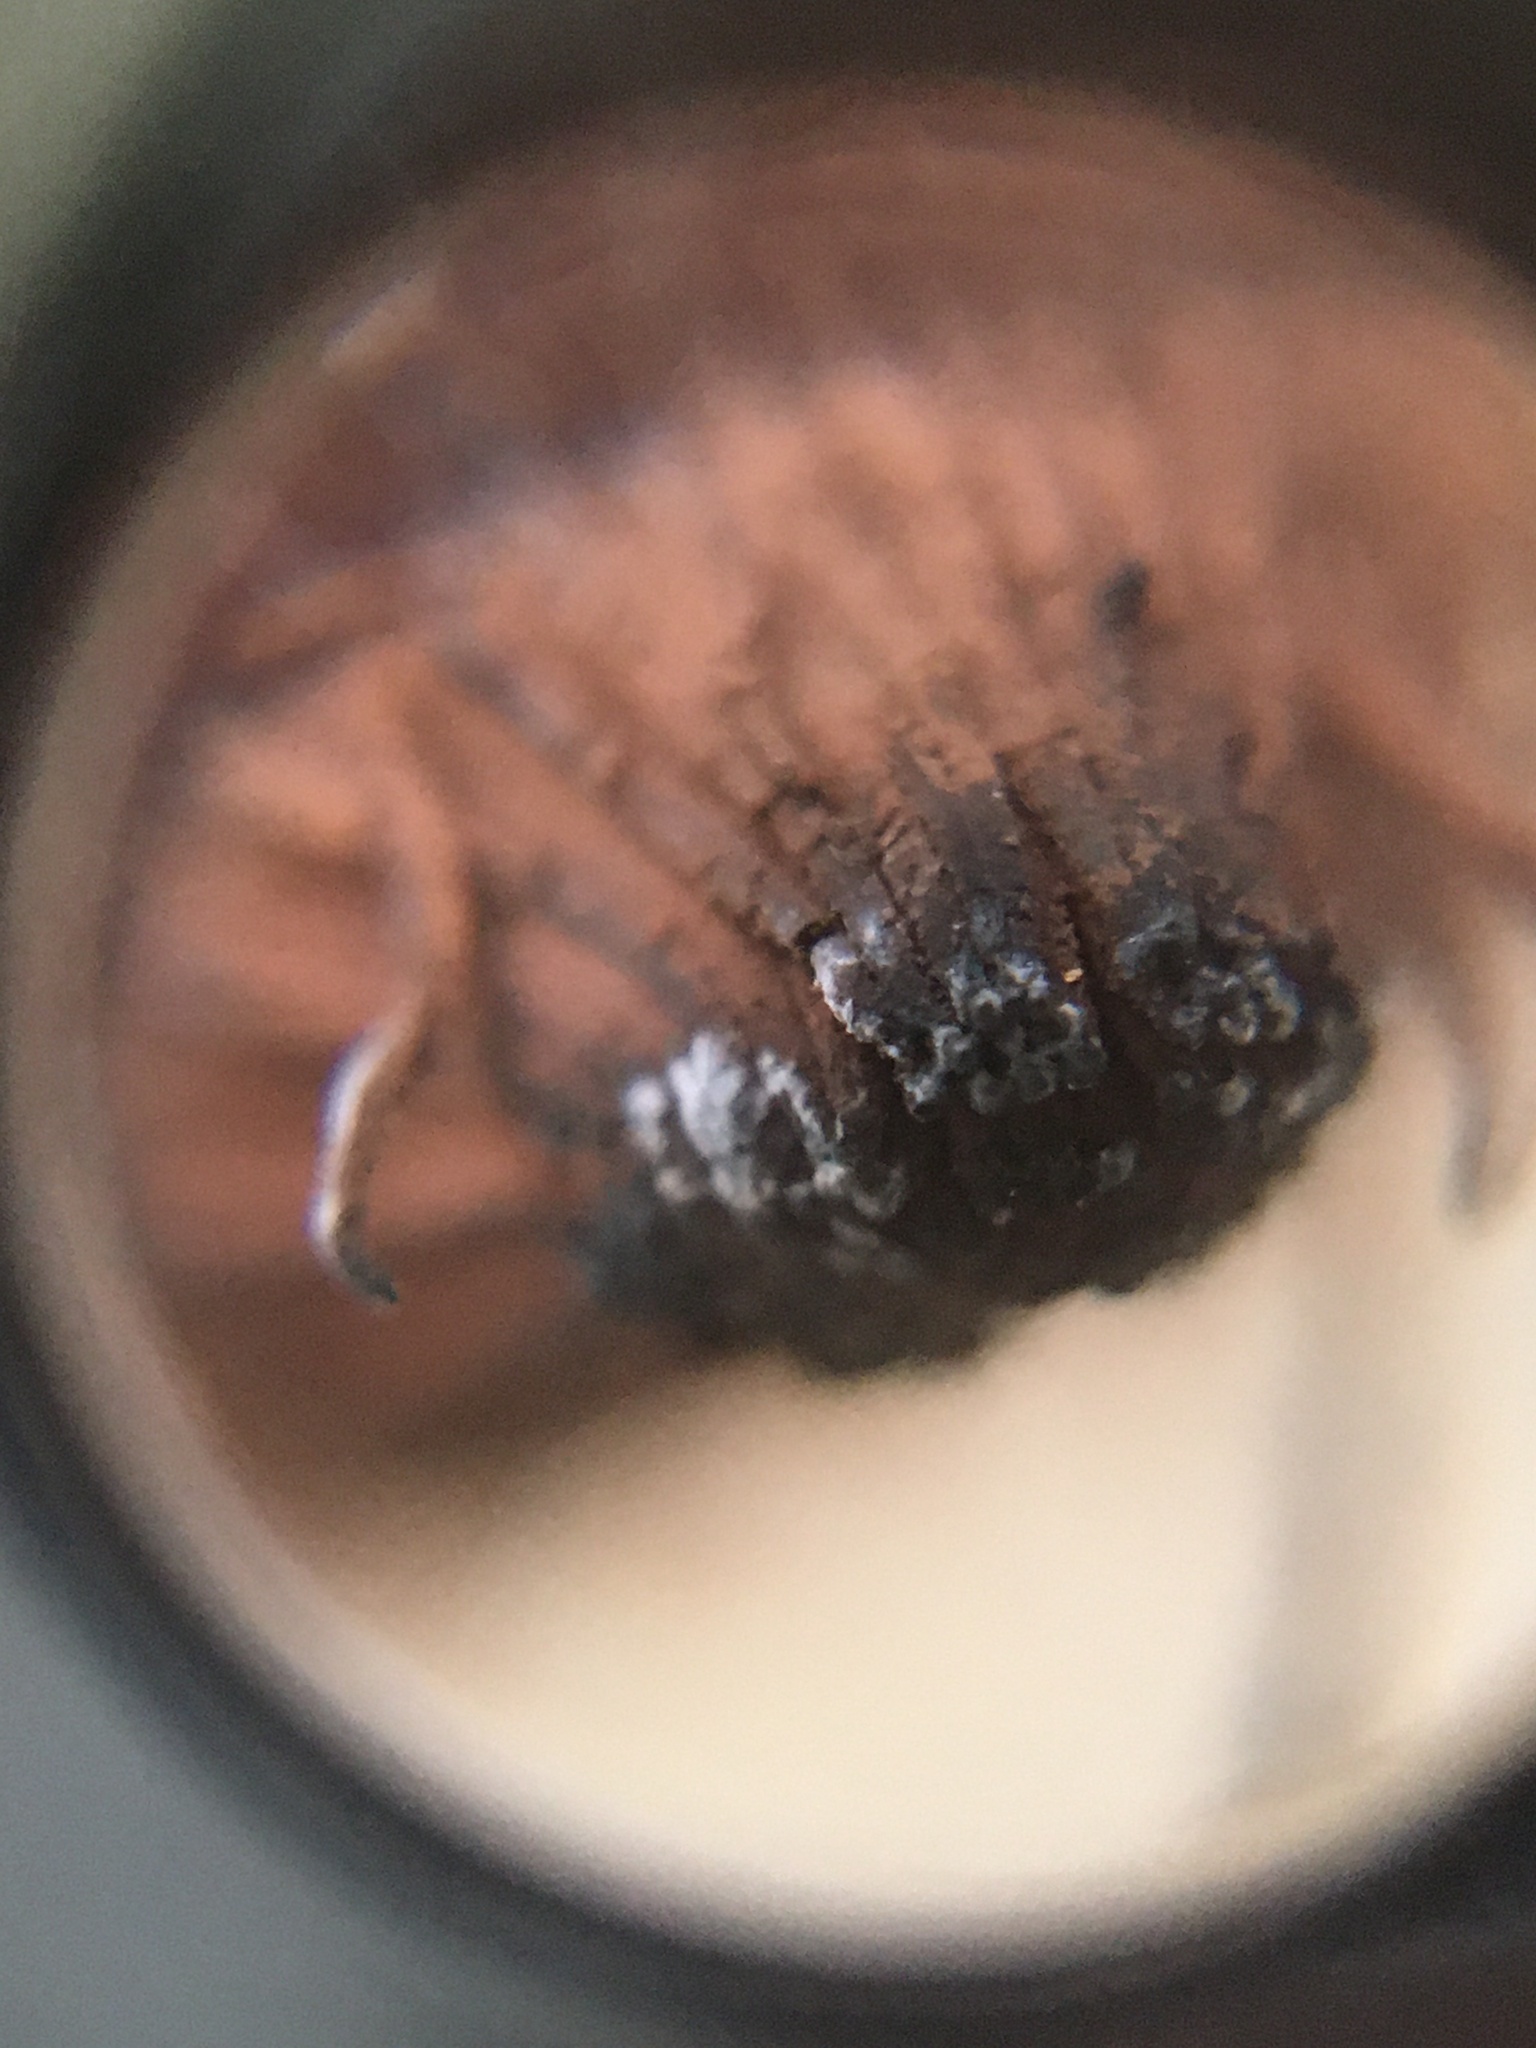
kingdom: Protozoa
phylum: Mycetozoa
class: Myxomycetes
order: Stemonitidales
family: Stemonitidaceae
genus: Stemonitis
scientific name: Stemonitis splendens
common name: Chocolate tube slime
